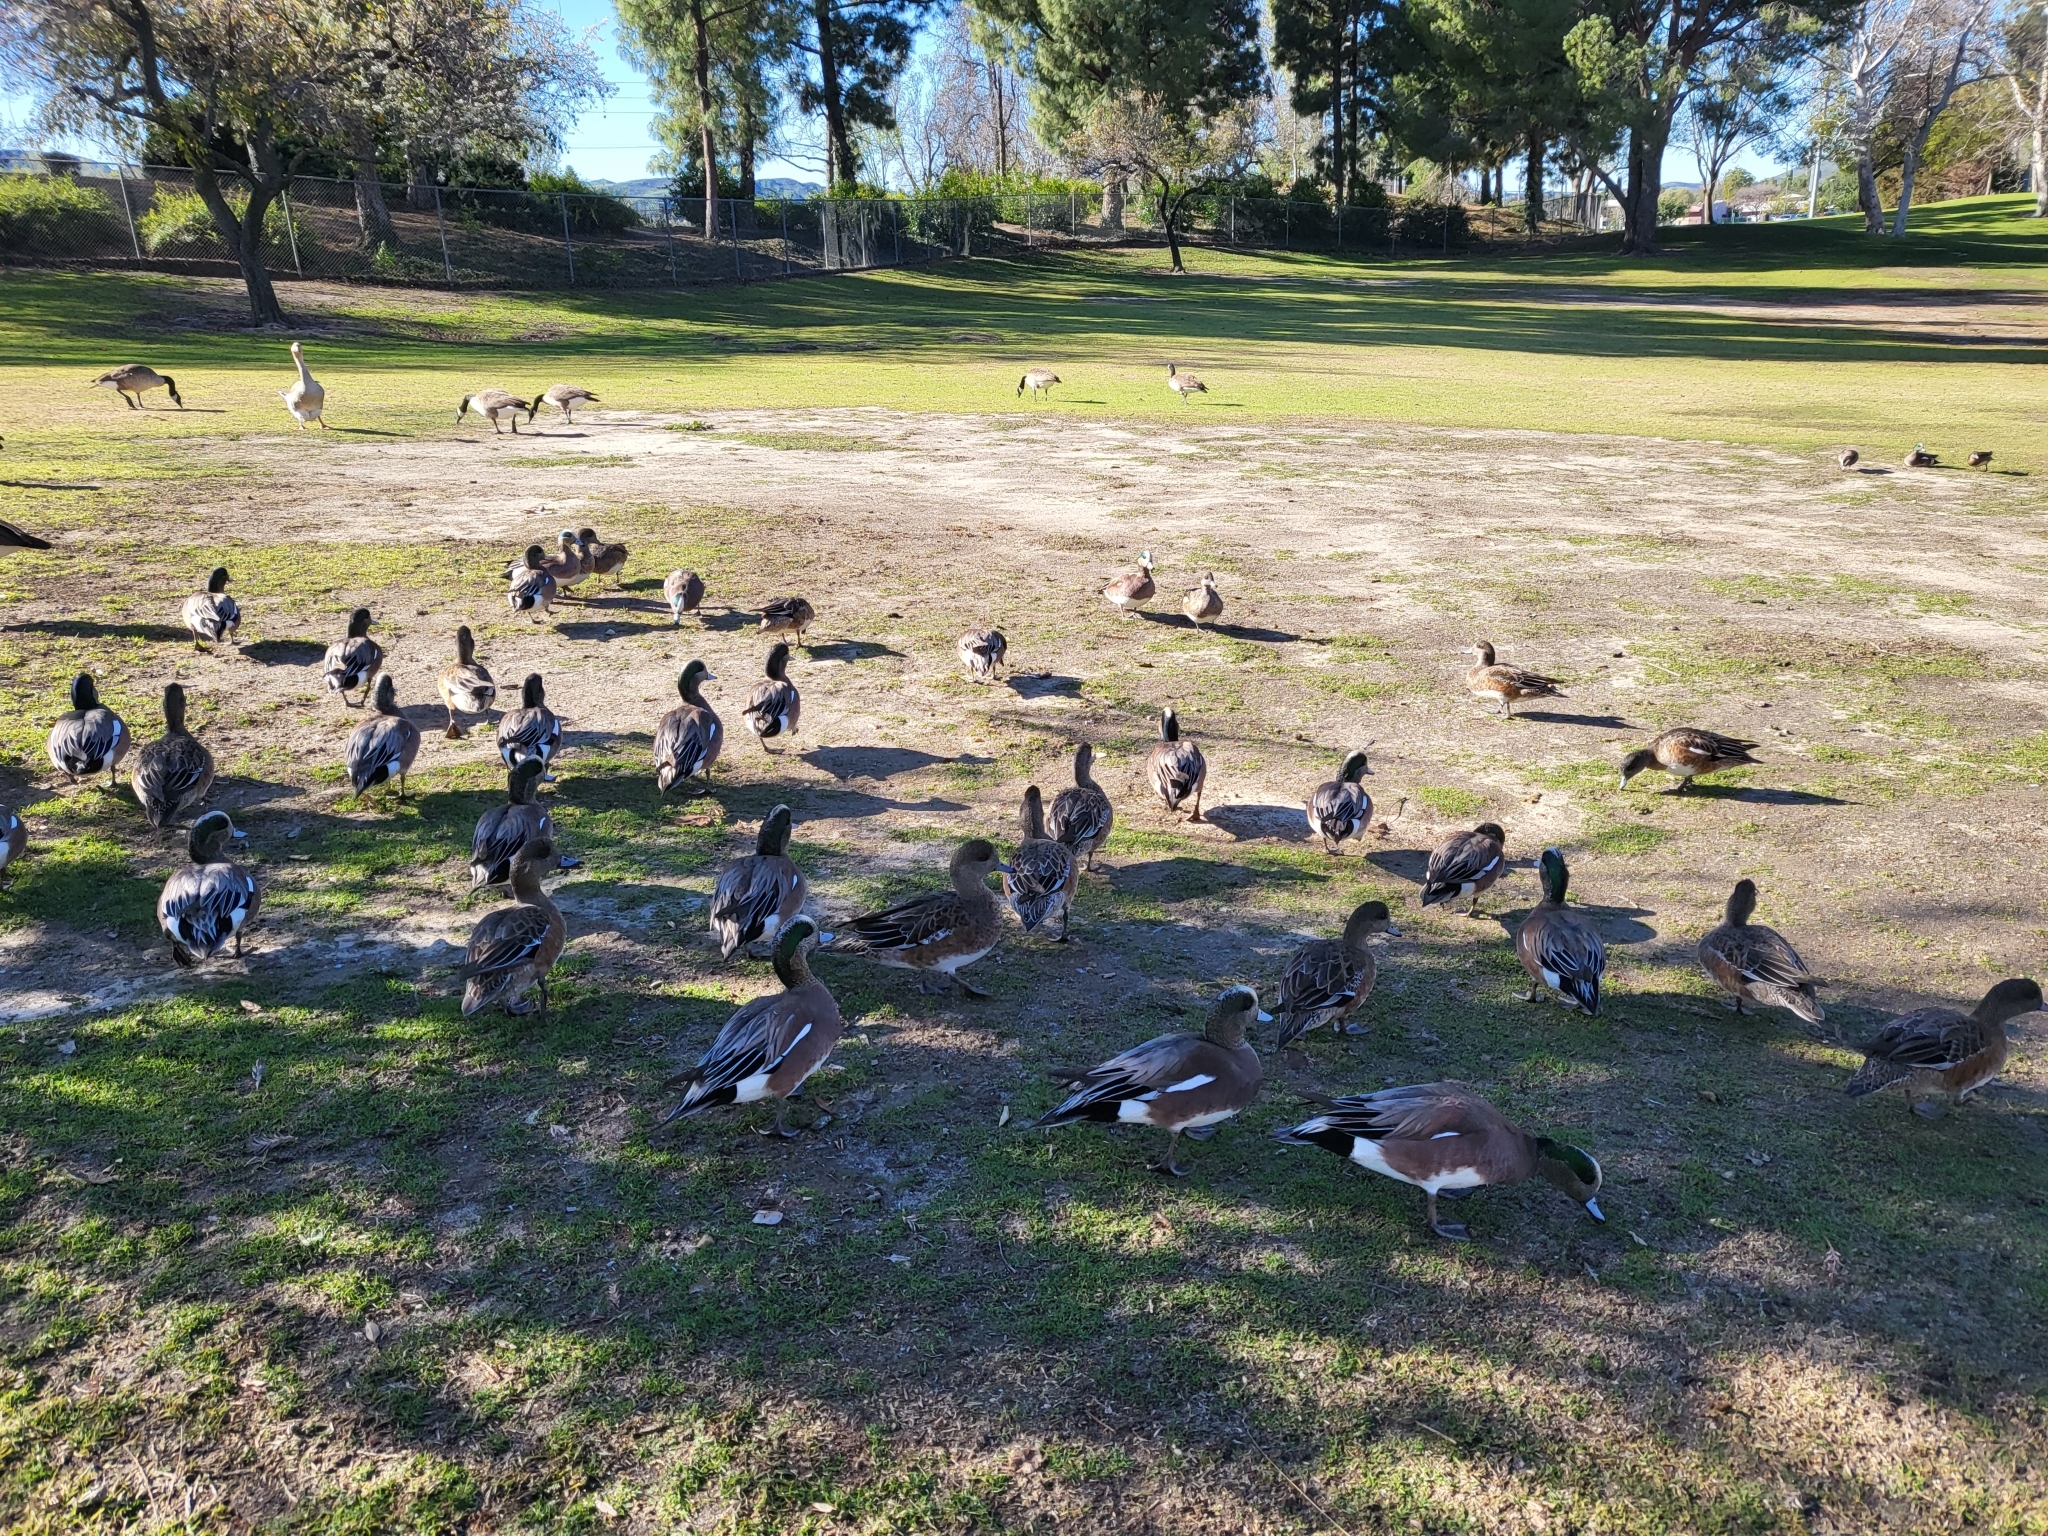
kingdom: Animalia
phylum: Chordata
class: Aves
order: Anseriformes
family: Anatidae
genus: Mareca
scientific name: Mareca americana
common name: American wigeon
